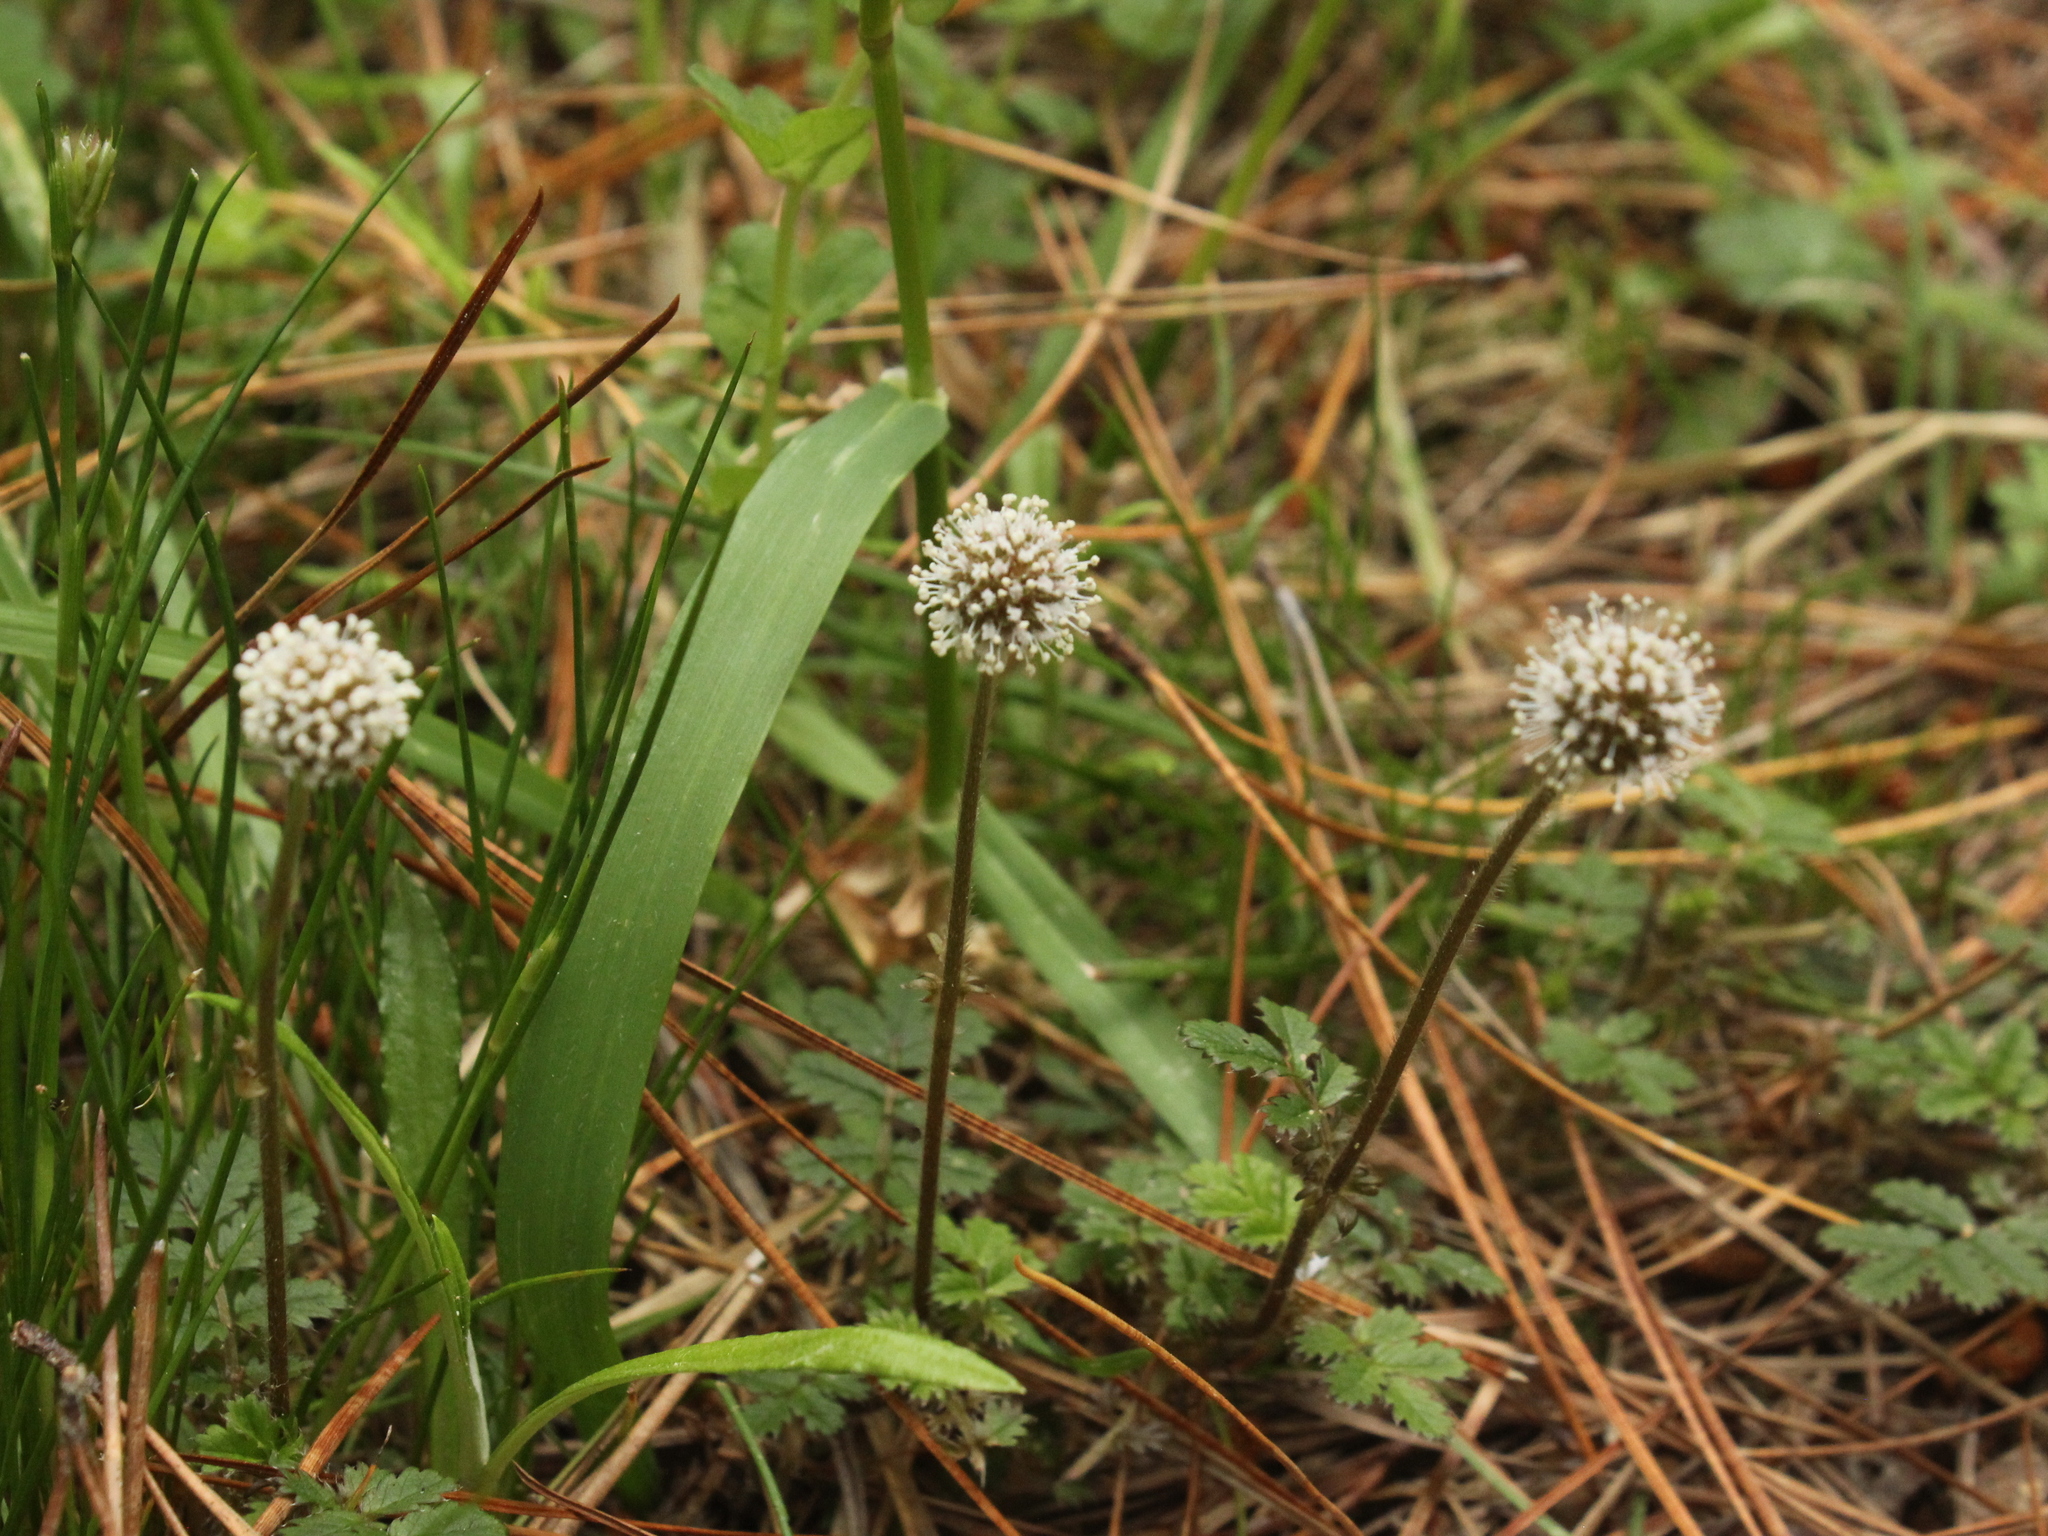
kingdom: Plantae
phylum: Tracheophyta
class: Magnoliopsida
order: Rosales
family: Rosaceae
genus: Acaena
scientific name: Acaena anserinifolia
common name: Bronze pirri-pirri-bur
